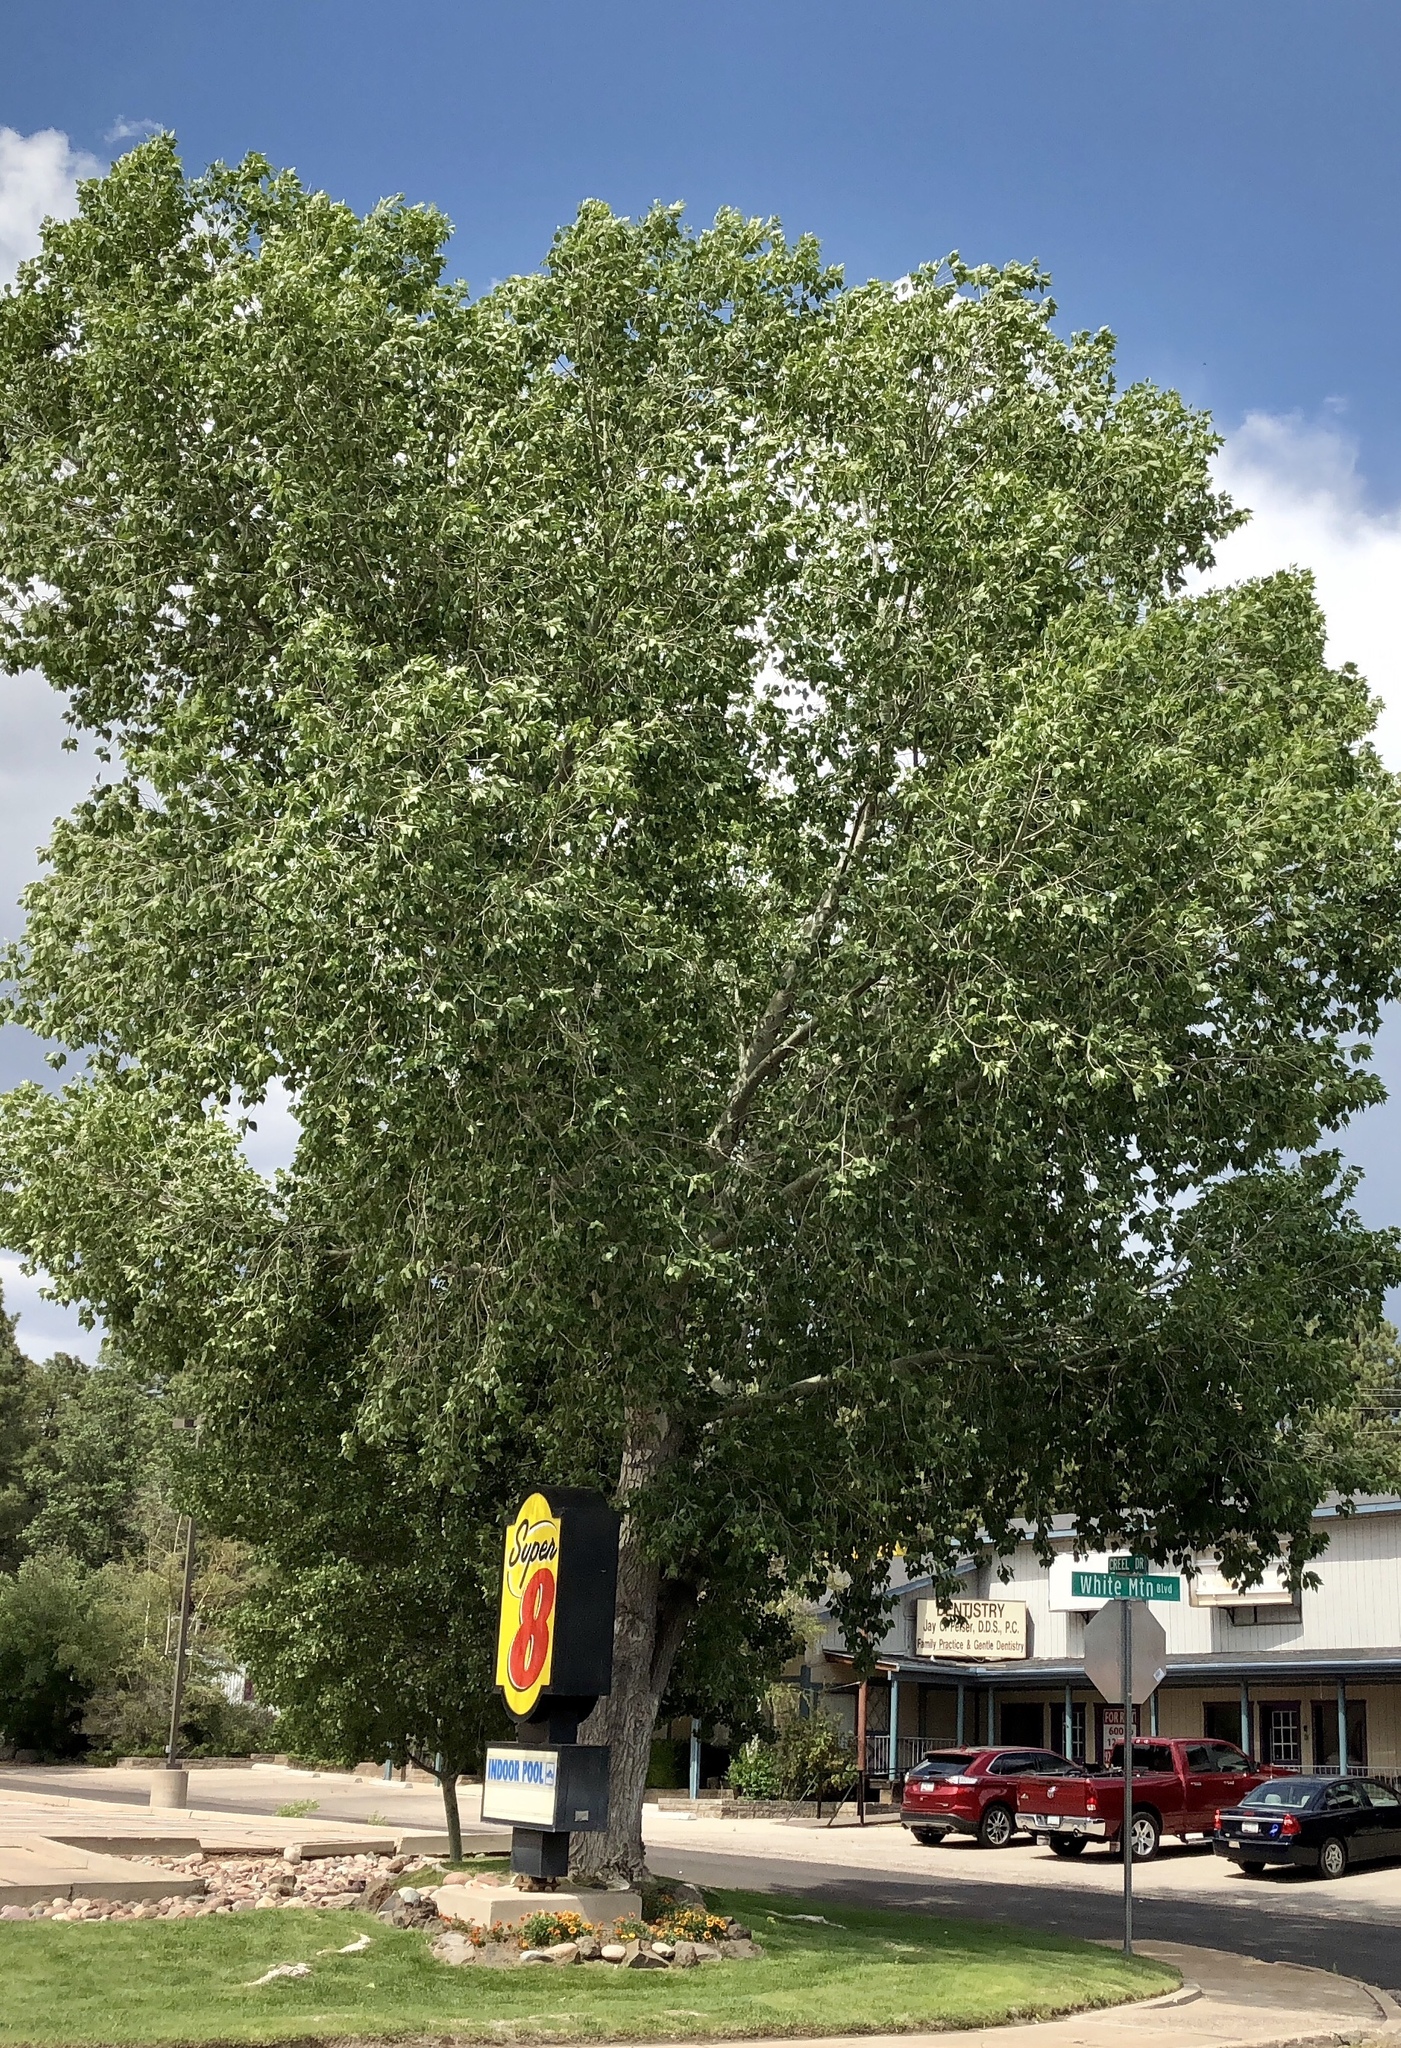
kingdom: Plantae
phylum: Tracheophyta
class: Magnoliopsida
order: Malpighiales
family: Salicaceae
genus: Populus
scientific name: Populus fremontii
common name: Fremont's cottonwood
